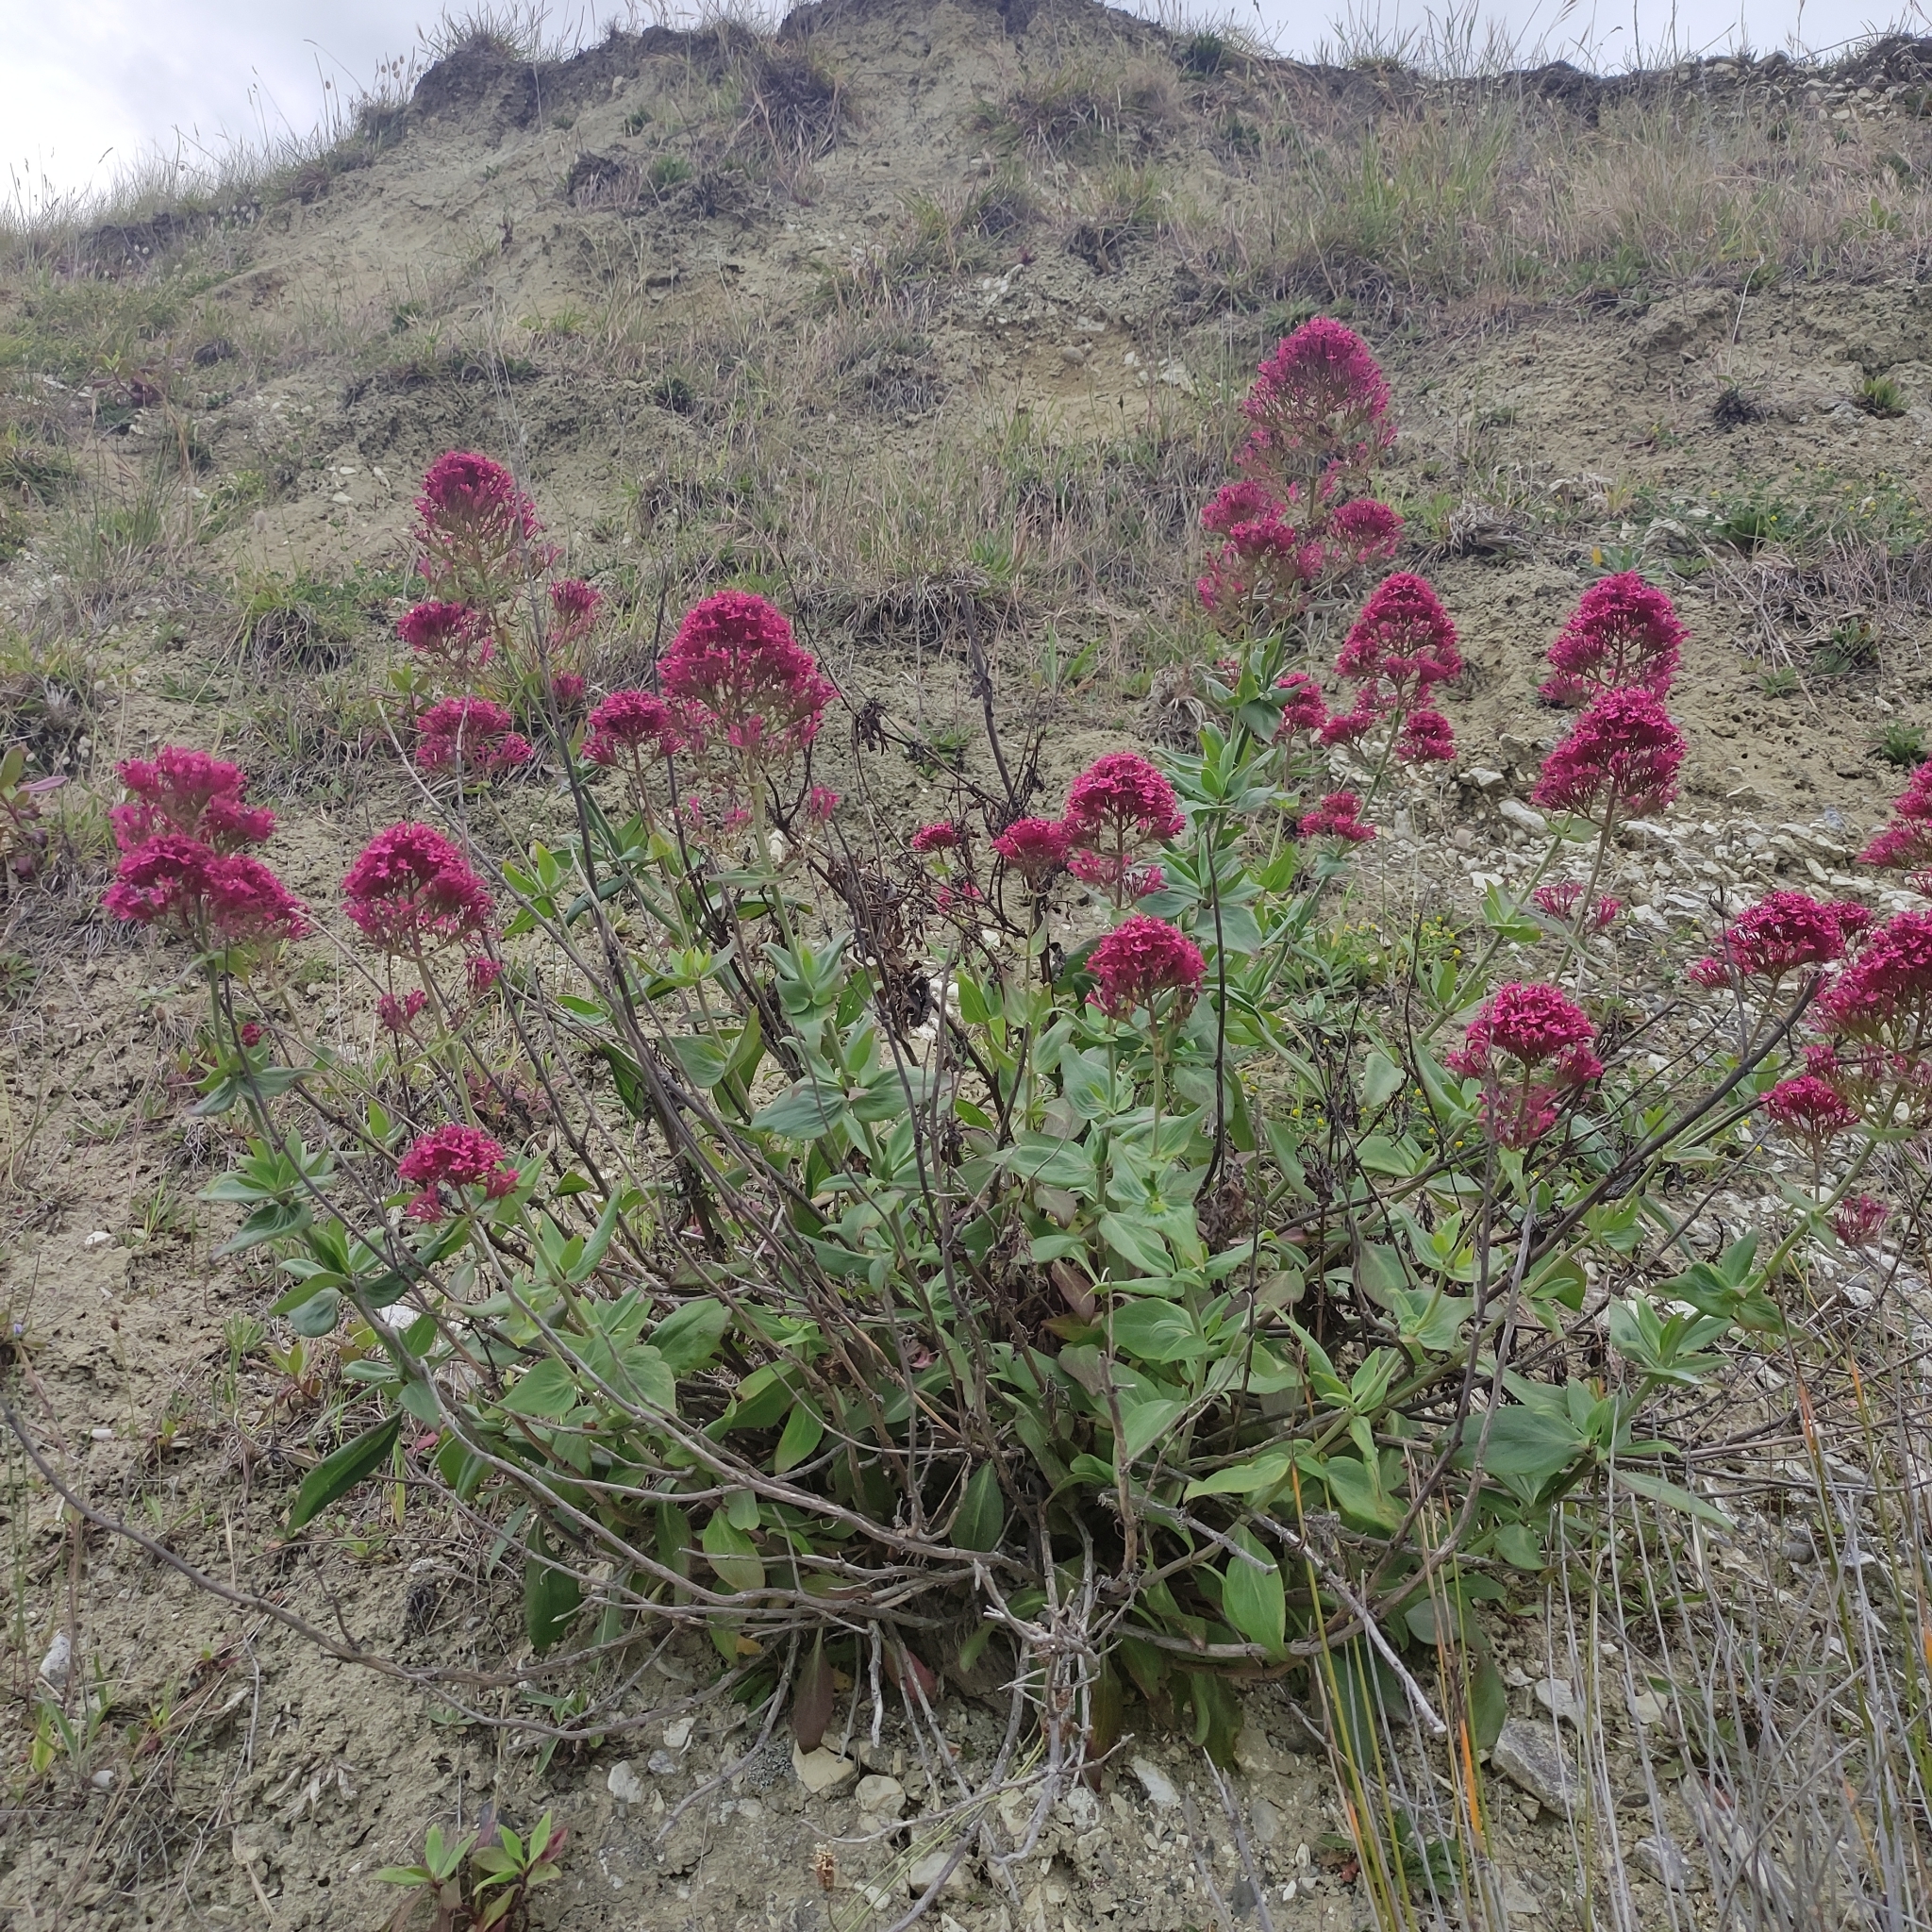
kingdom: Plantae
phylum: Tracheophyta
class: Magnoliopsida
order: Dipsacales
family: Caprifoliaceae
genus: Centranthus
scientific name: Centranthus ruber
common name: Red valerian
